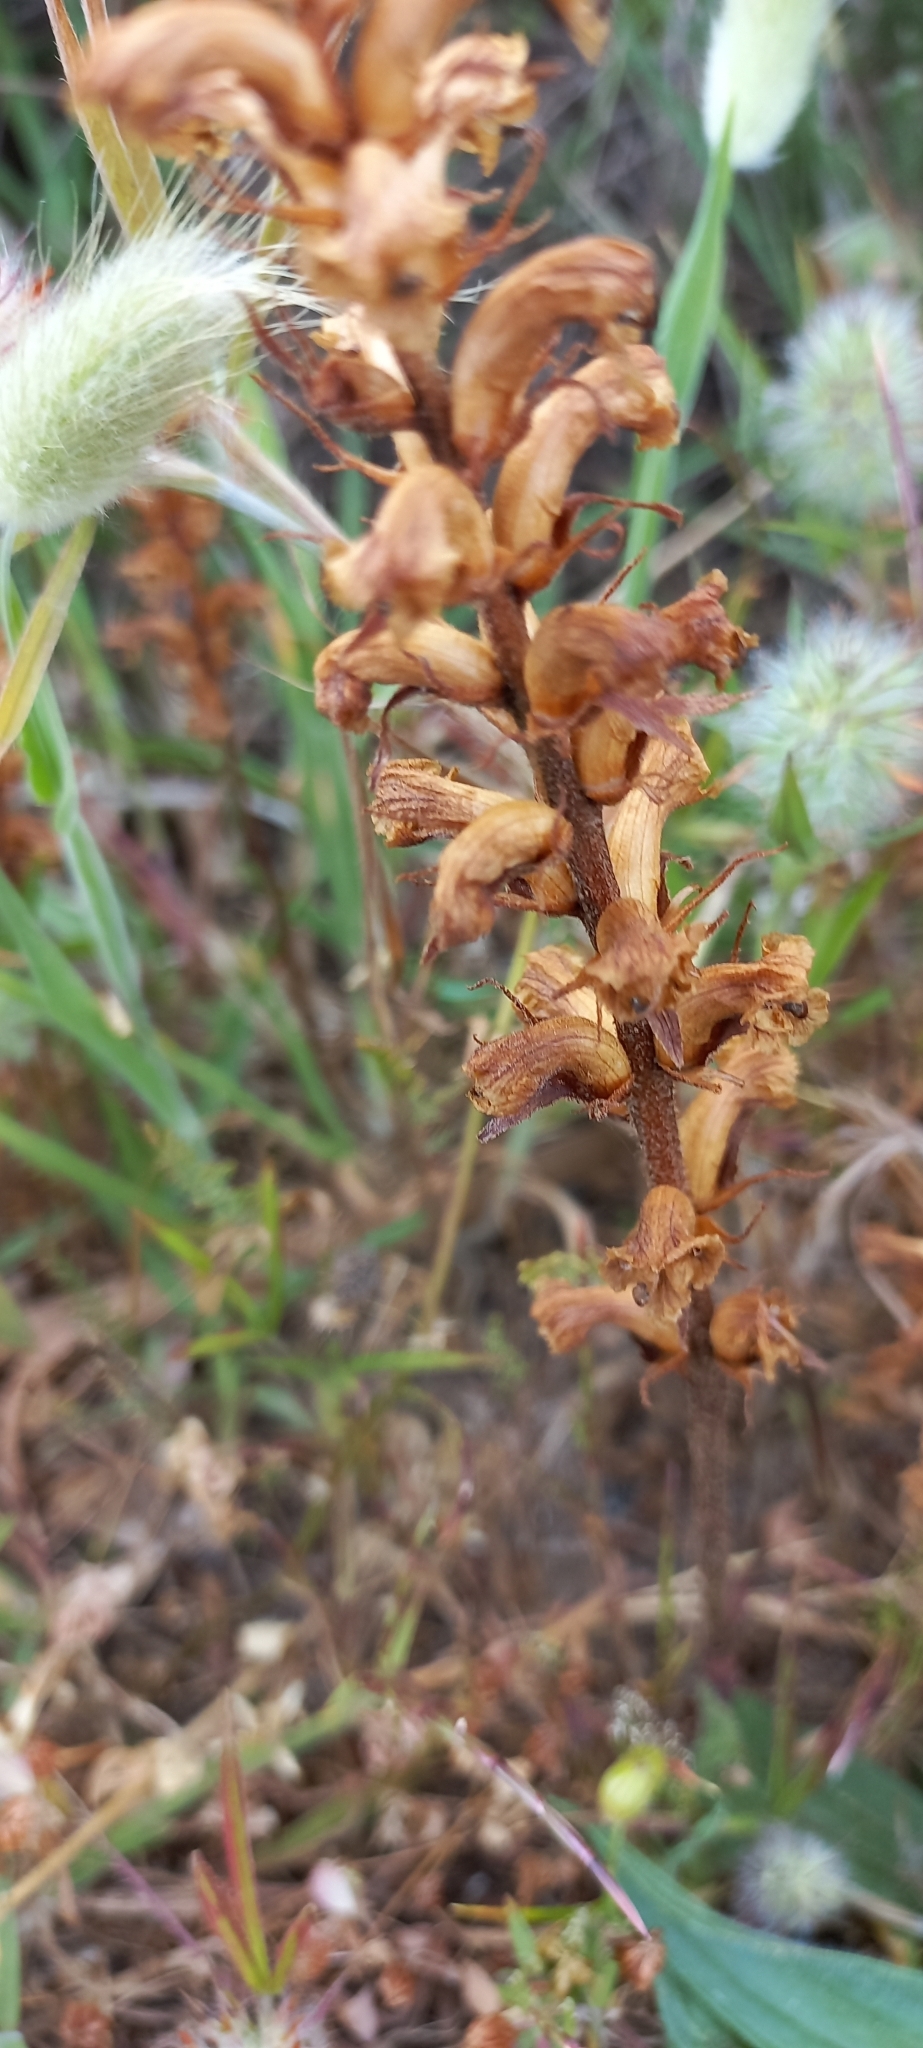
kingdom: Plantae
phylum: Tracheophyta
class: Magnoliopsida
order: Lamiales
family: Orobanchaceae
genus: Orobanche
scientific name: Orobanche minor
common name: Common broomrape
